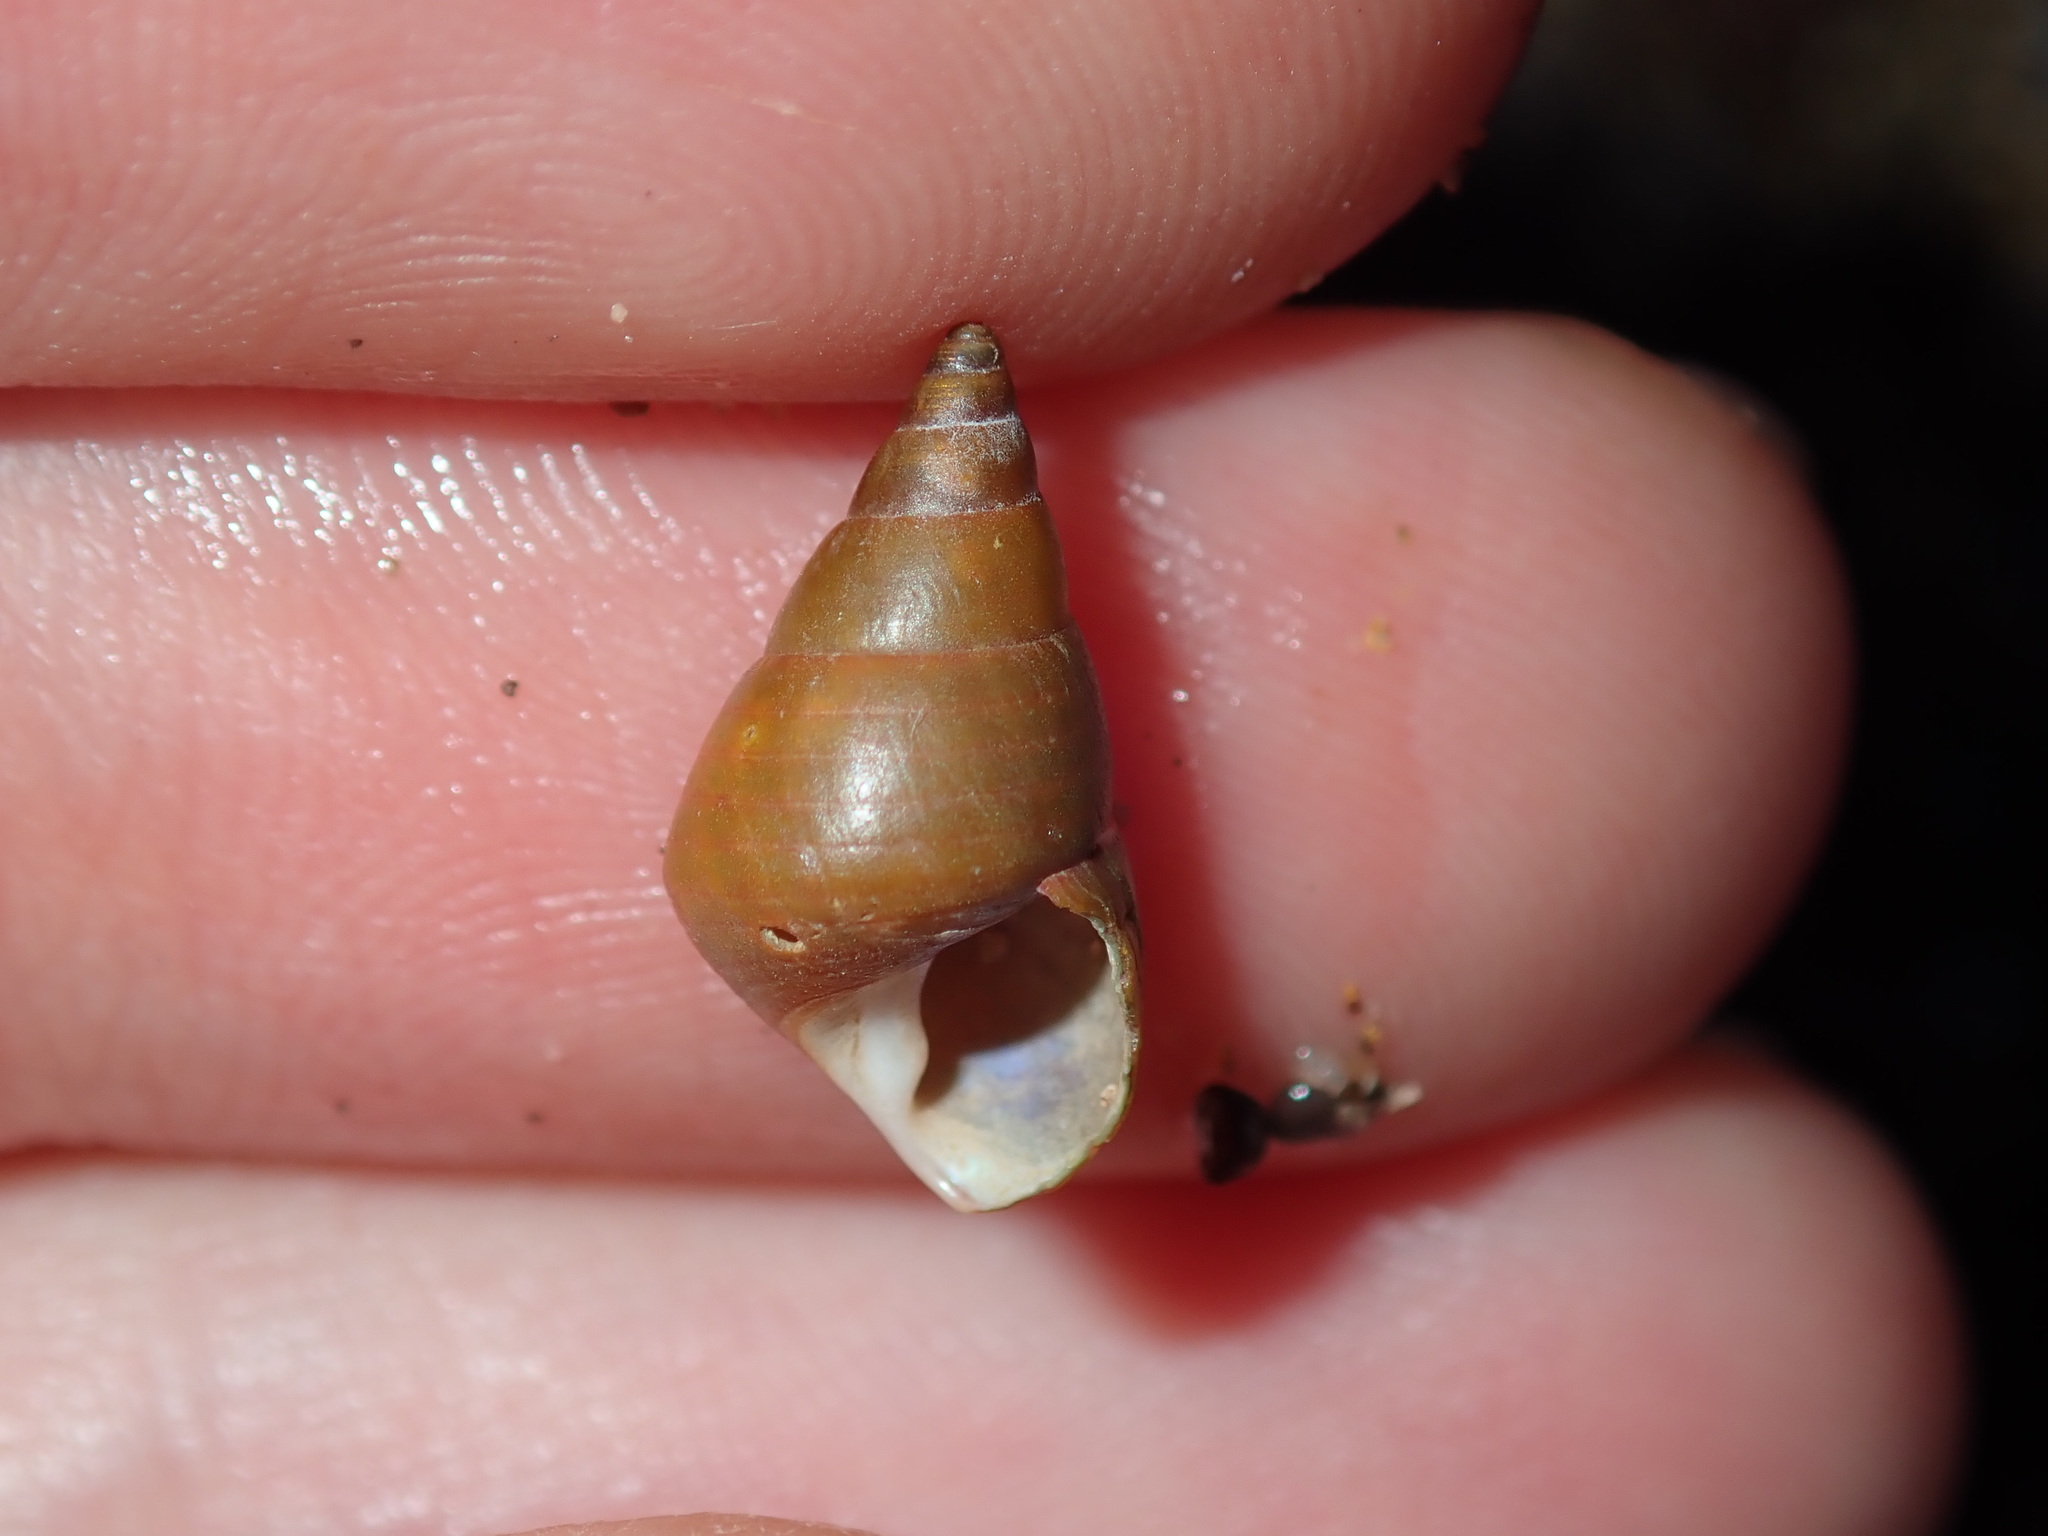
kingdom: Animalia
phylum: Mollusca
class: Gastropoda
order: Trochida
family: Trochidae
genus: Phasianotrochus
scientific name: Phasianotrochus eximius
